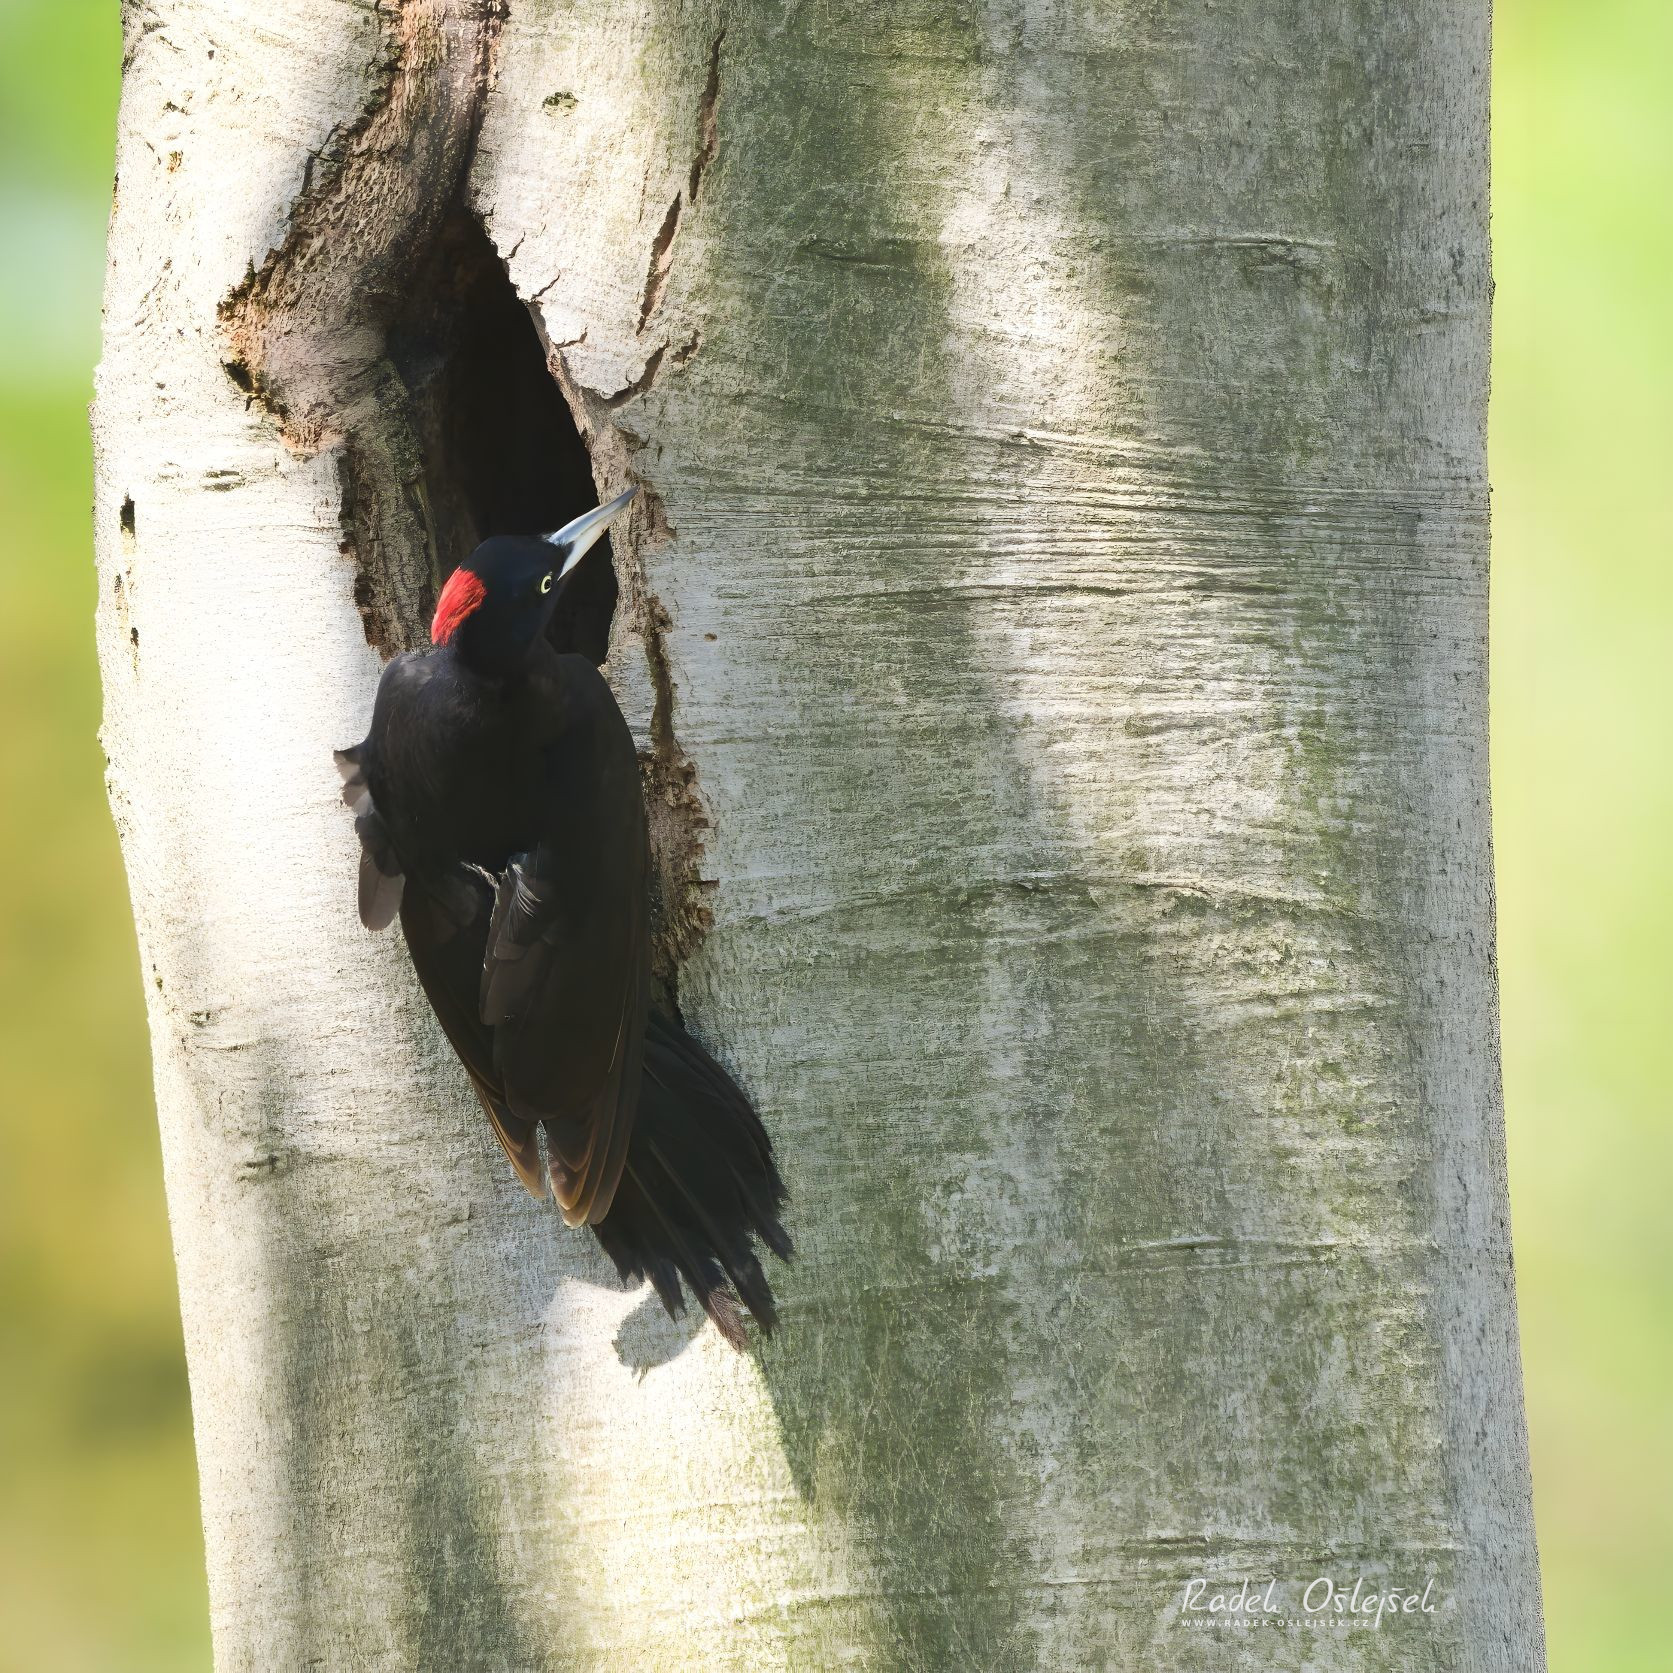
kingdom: Animalia
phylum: Chordata
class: Aves
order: Piciformes
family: Picidae
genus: Dryocopus
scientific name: Dryocopus martius
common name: Black woodpecker
